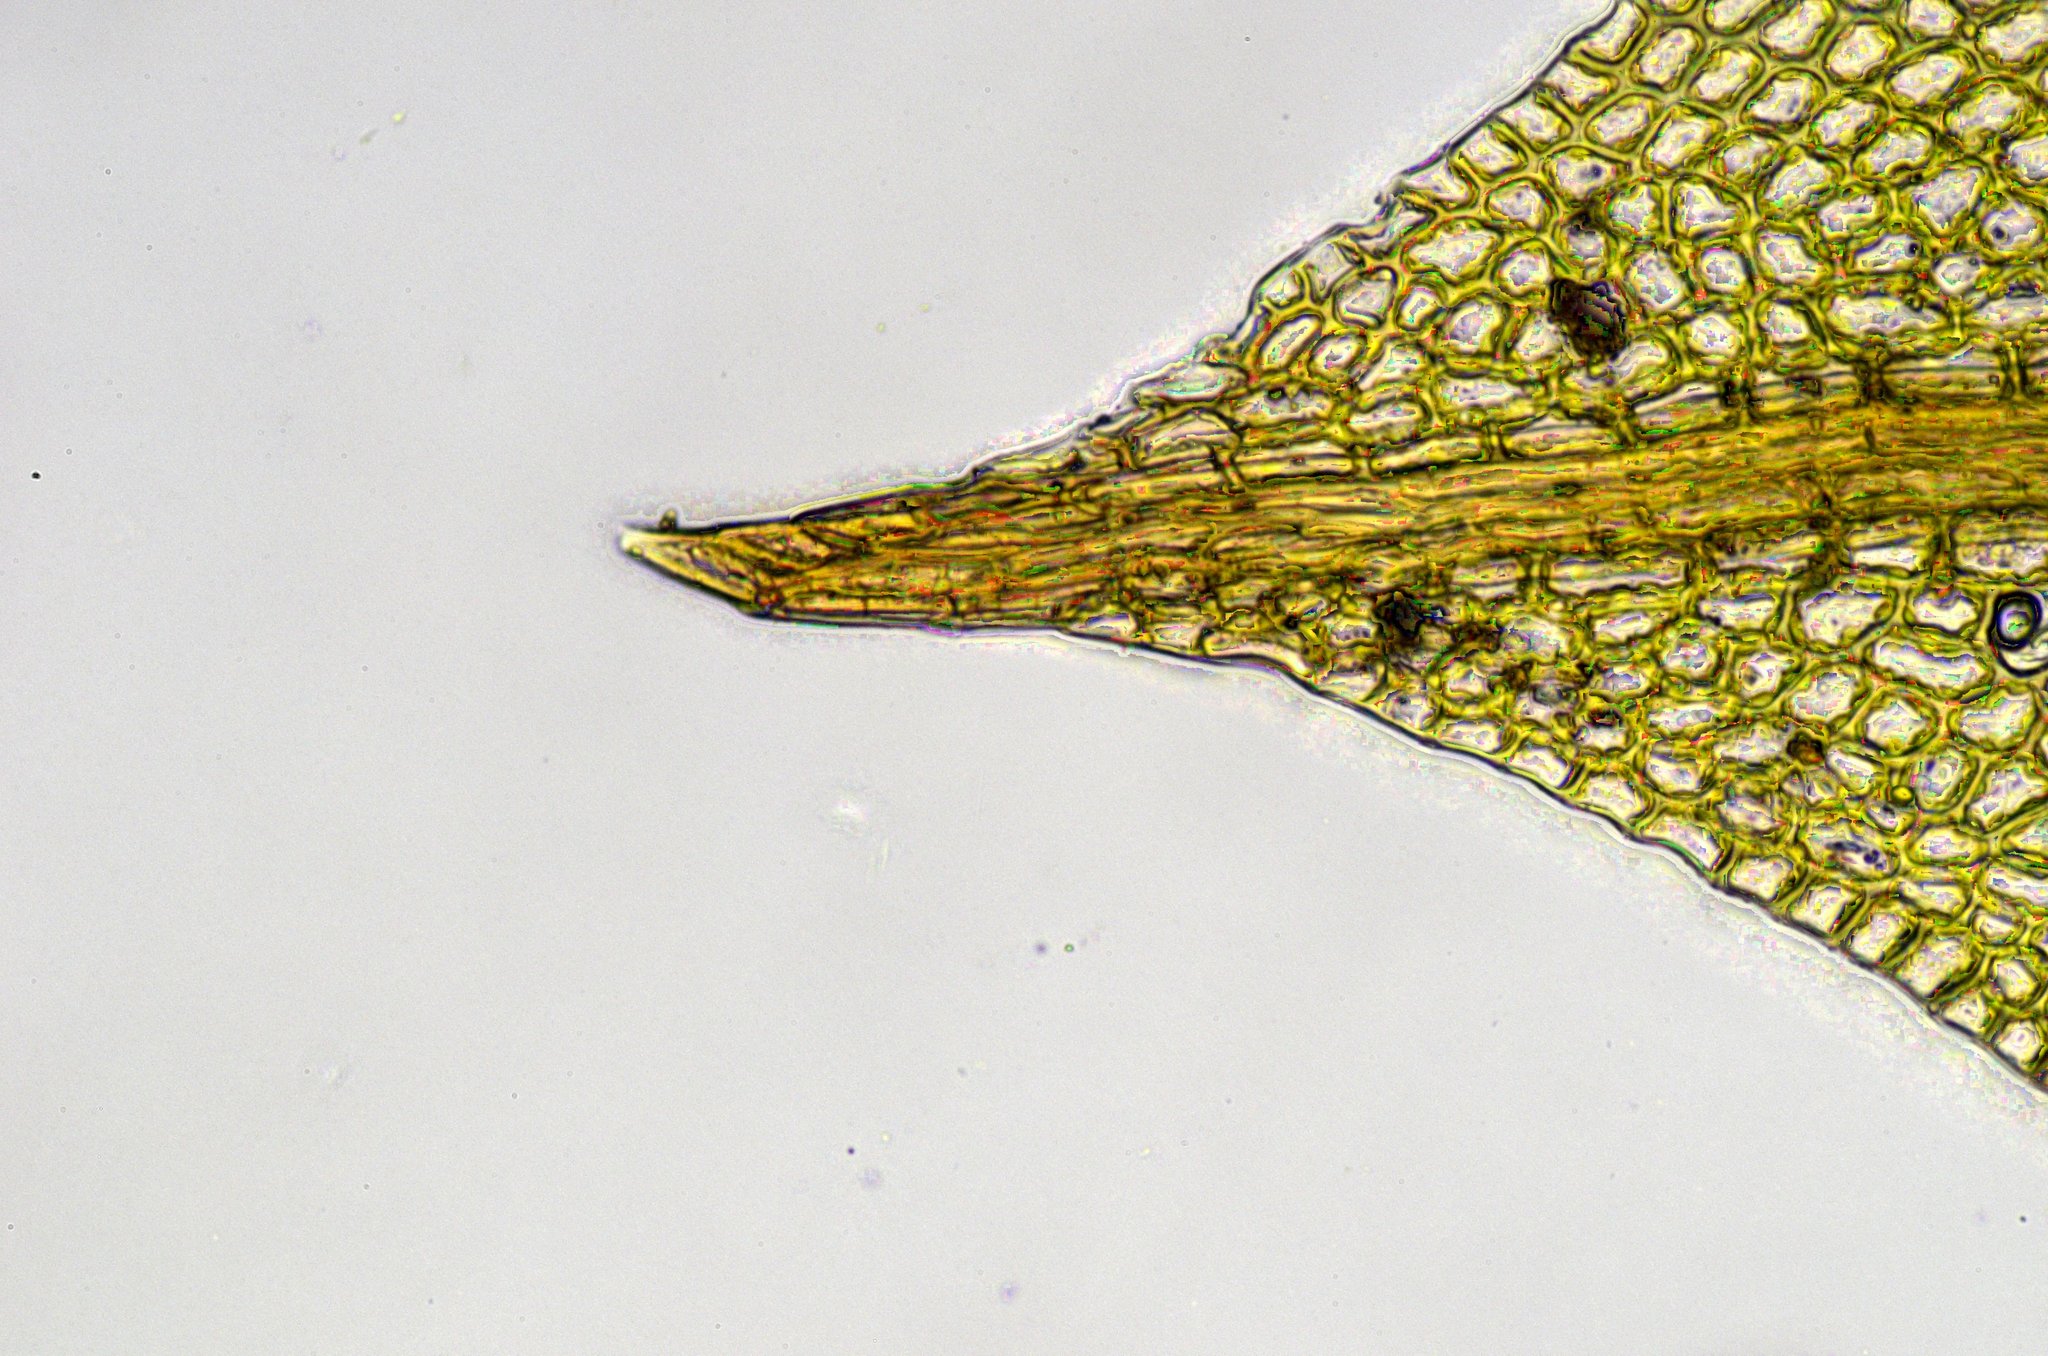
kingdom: Plantae
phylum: Bryophyta
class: Bryopsida
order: Pottiales
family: Pottiaceae
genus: Tortula
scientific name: Tortula truncata
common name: Truncated screw moss
